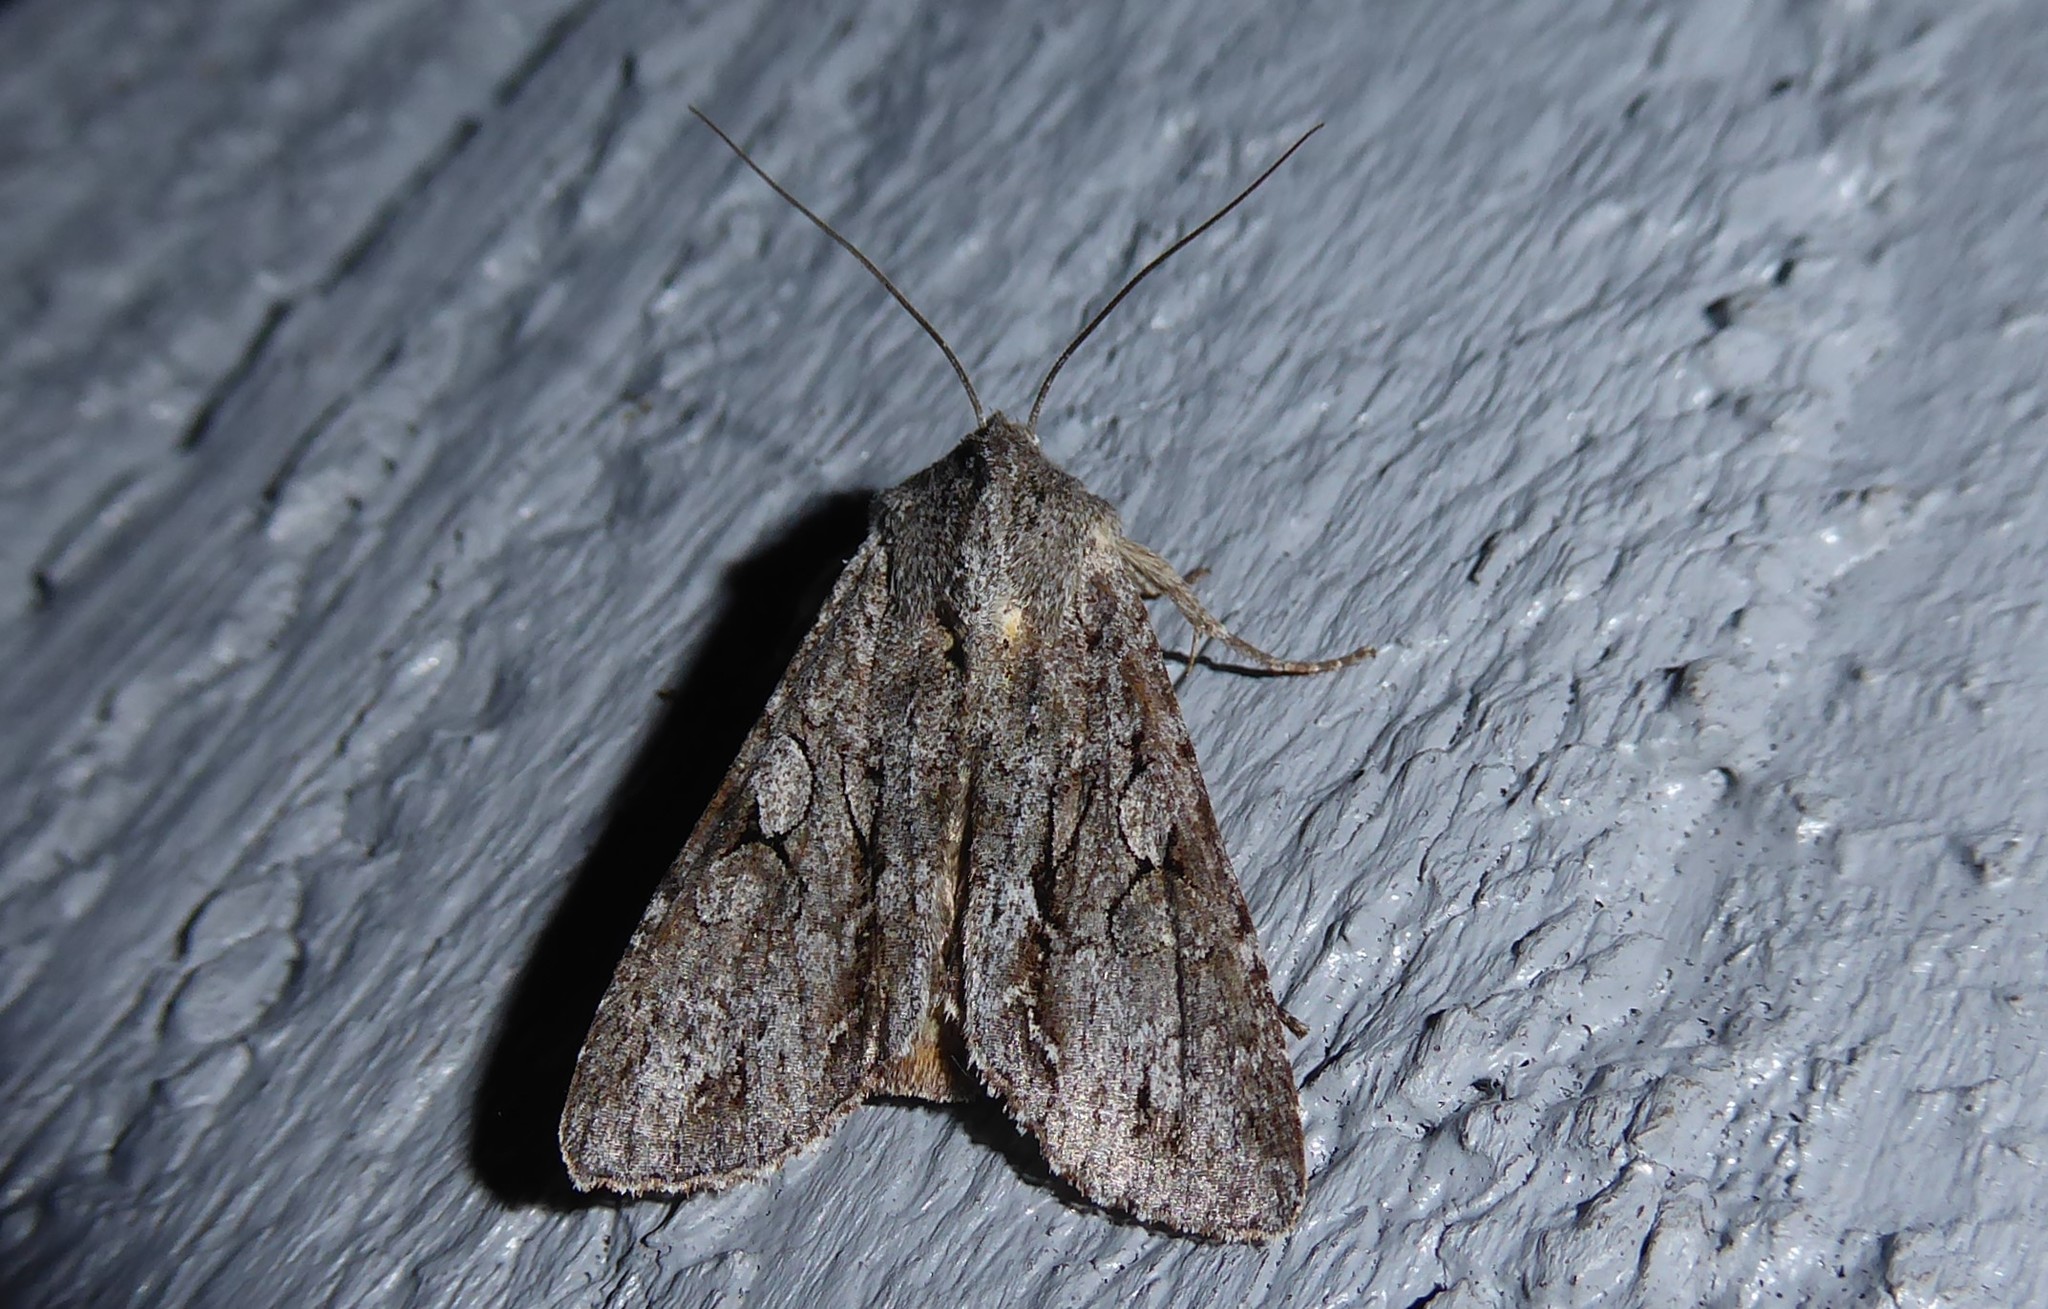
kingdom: Animalia
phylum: Arthropoda
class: Insecta
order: Lepidoptera
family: Noctuidae
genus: Ichneutica
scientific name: Ichneutica
